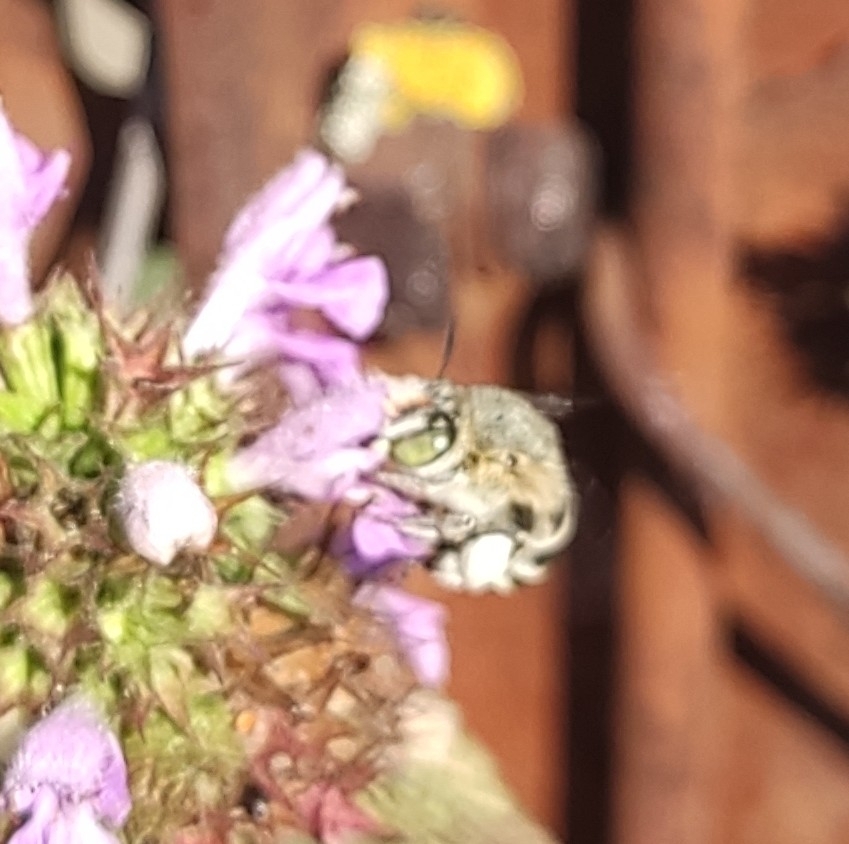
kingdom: Animalia
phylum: Arthropoda
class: Insecta
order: Hymenoptera
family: Apidae
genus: Amegilla
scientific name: Amegilla salviae
